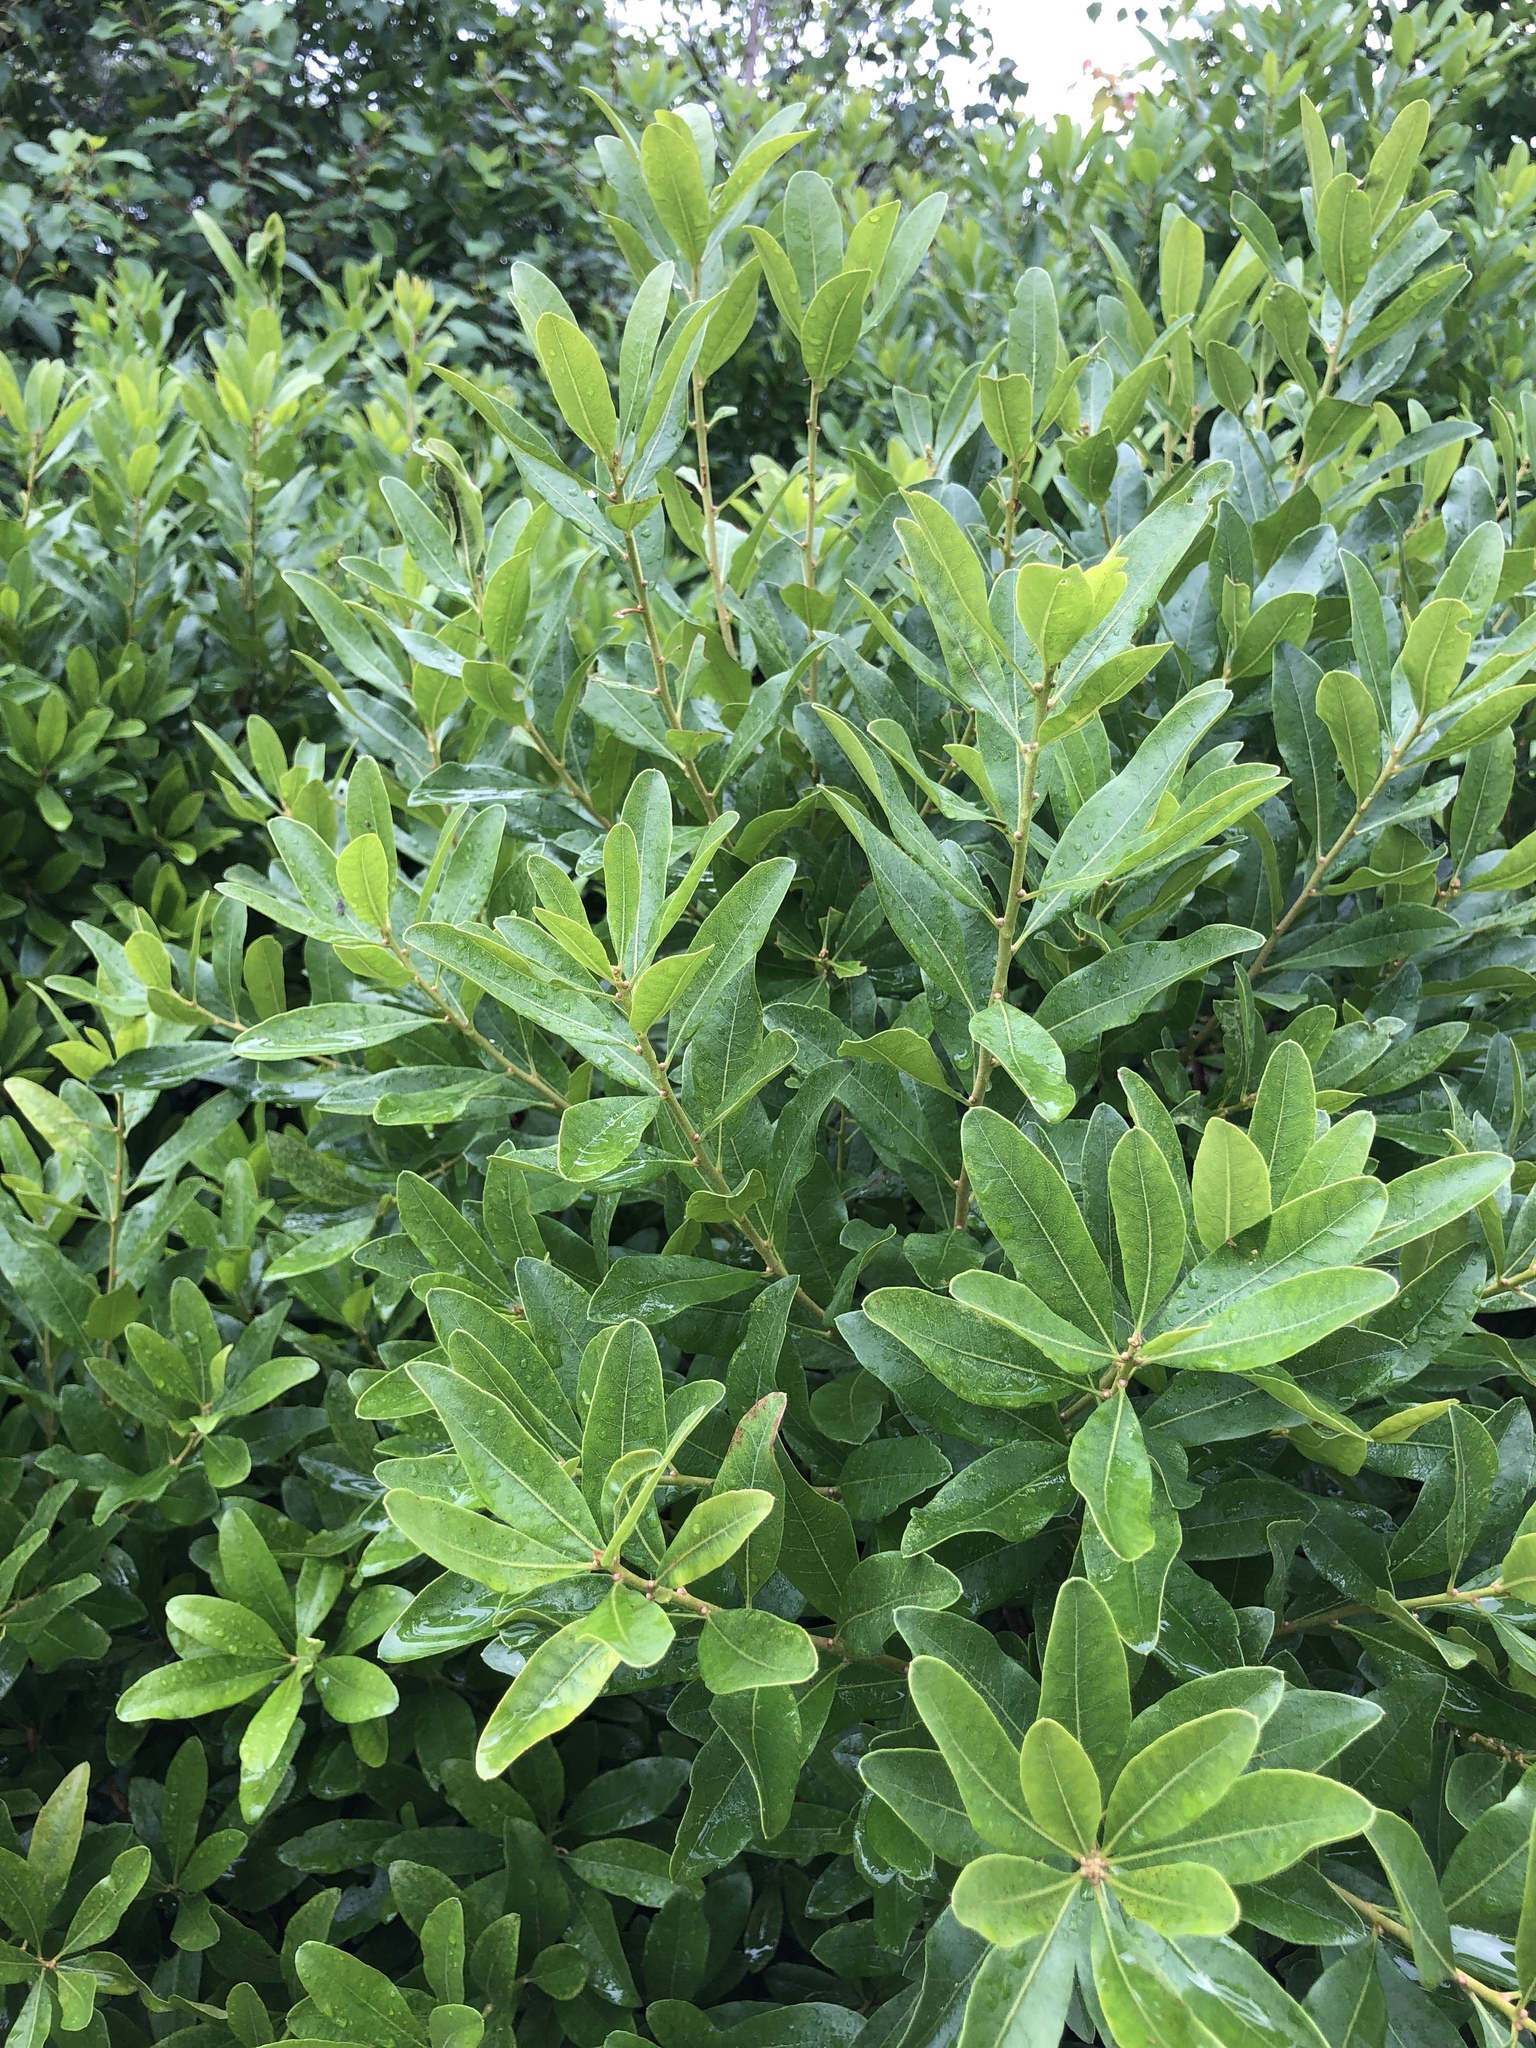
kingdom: Plantae
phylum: Tracheophyta
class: Magnoliopsida
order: Fagales
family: Myricaceae
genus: Morella
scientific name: Morella pensylvanica
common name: Northern bayberry
